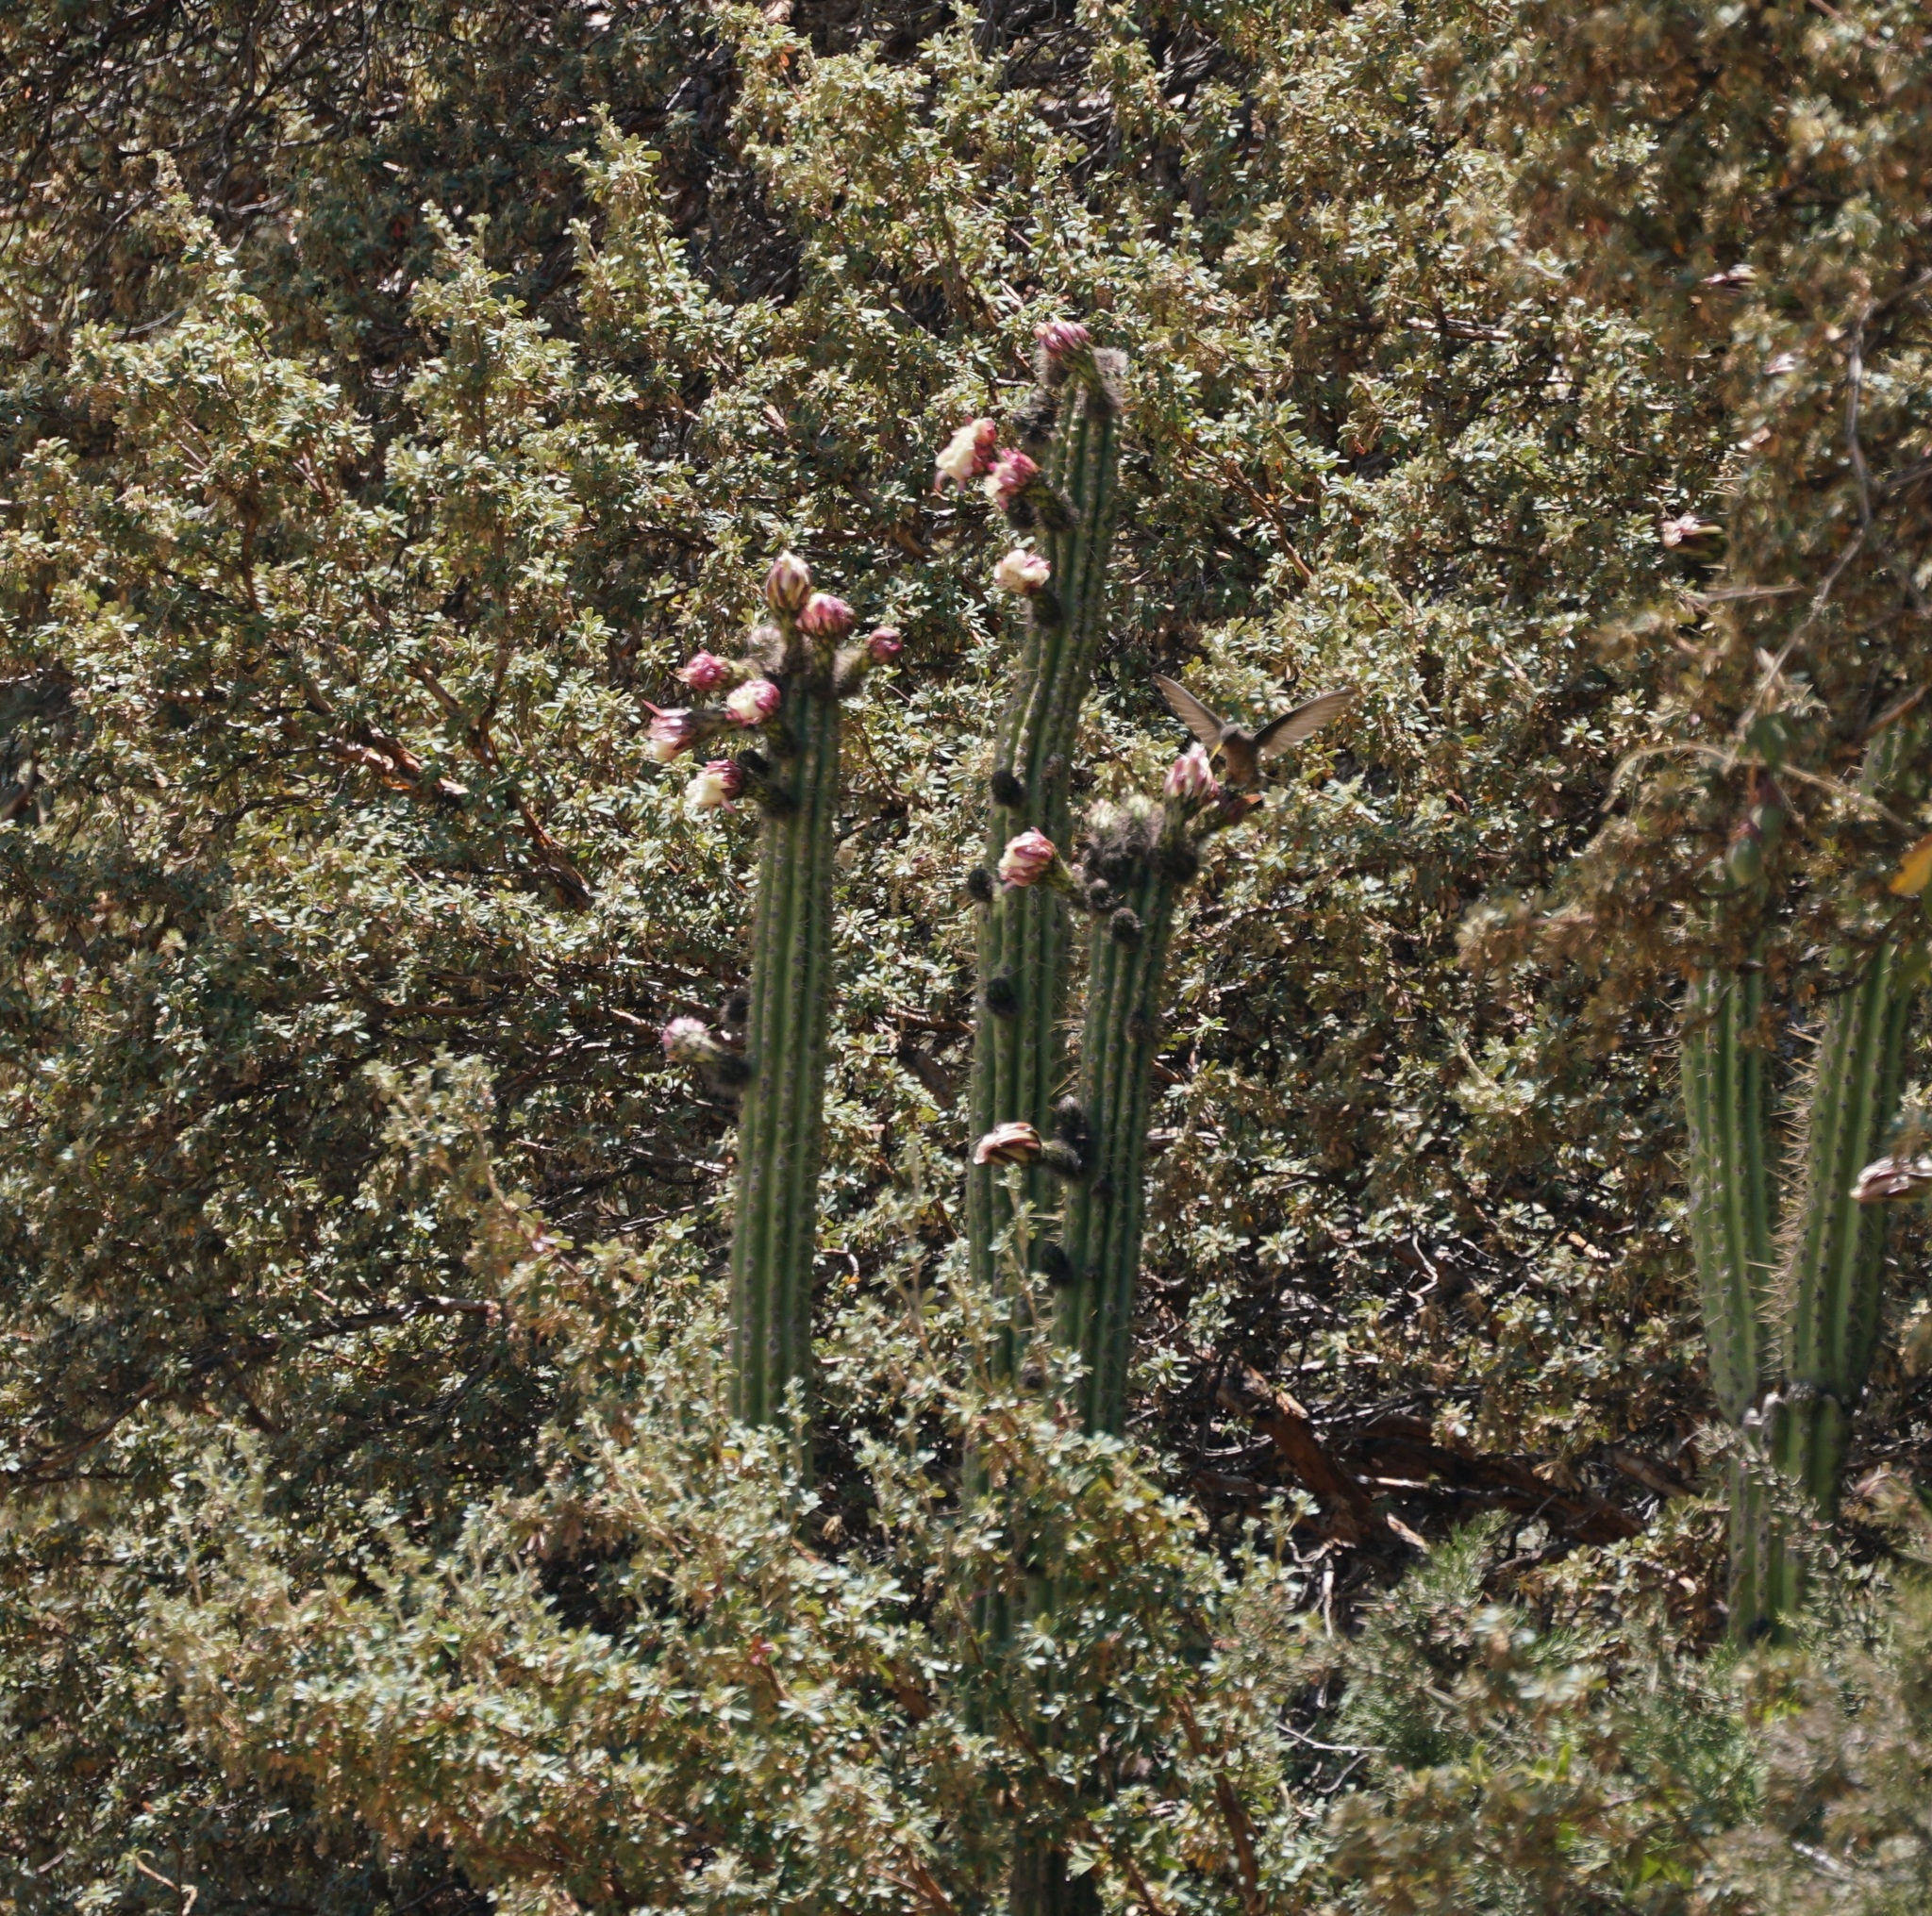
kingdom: Animalia
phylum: Chordata
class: Aves
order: Apodiformes
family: Trochilidae
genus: Patagona
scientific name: Patagona gigas
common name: Giant hummingbird
